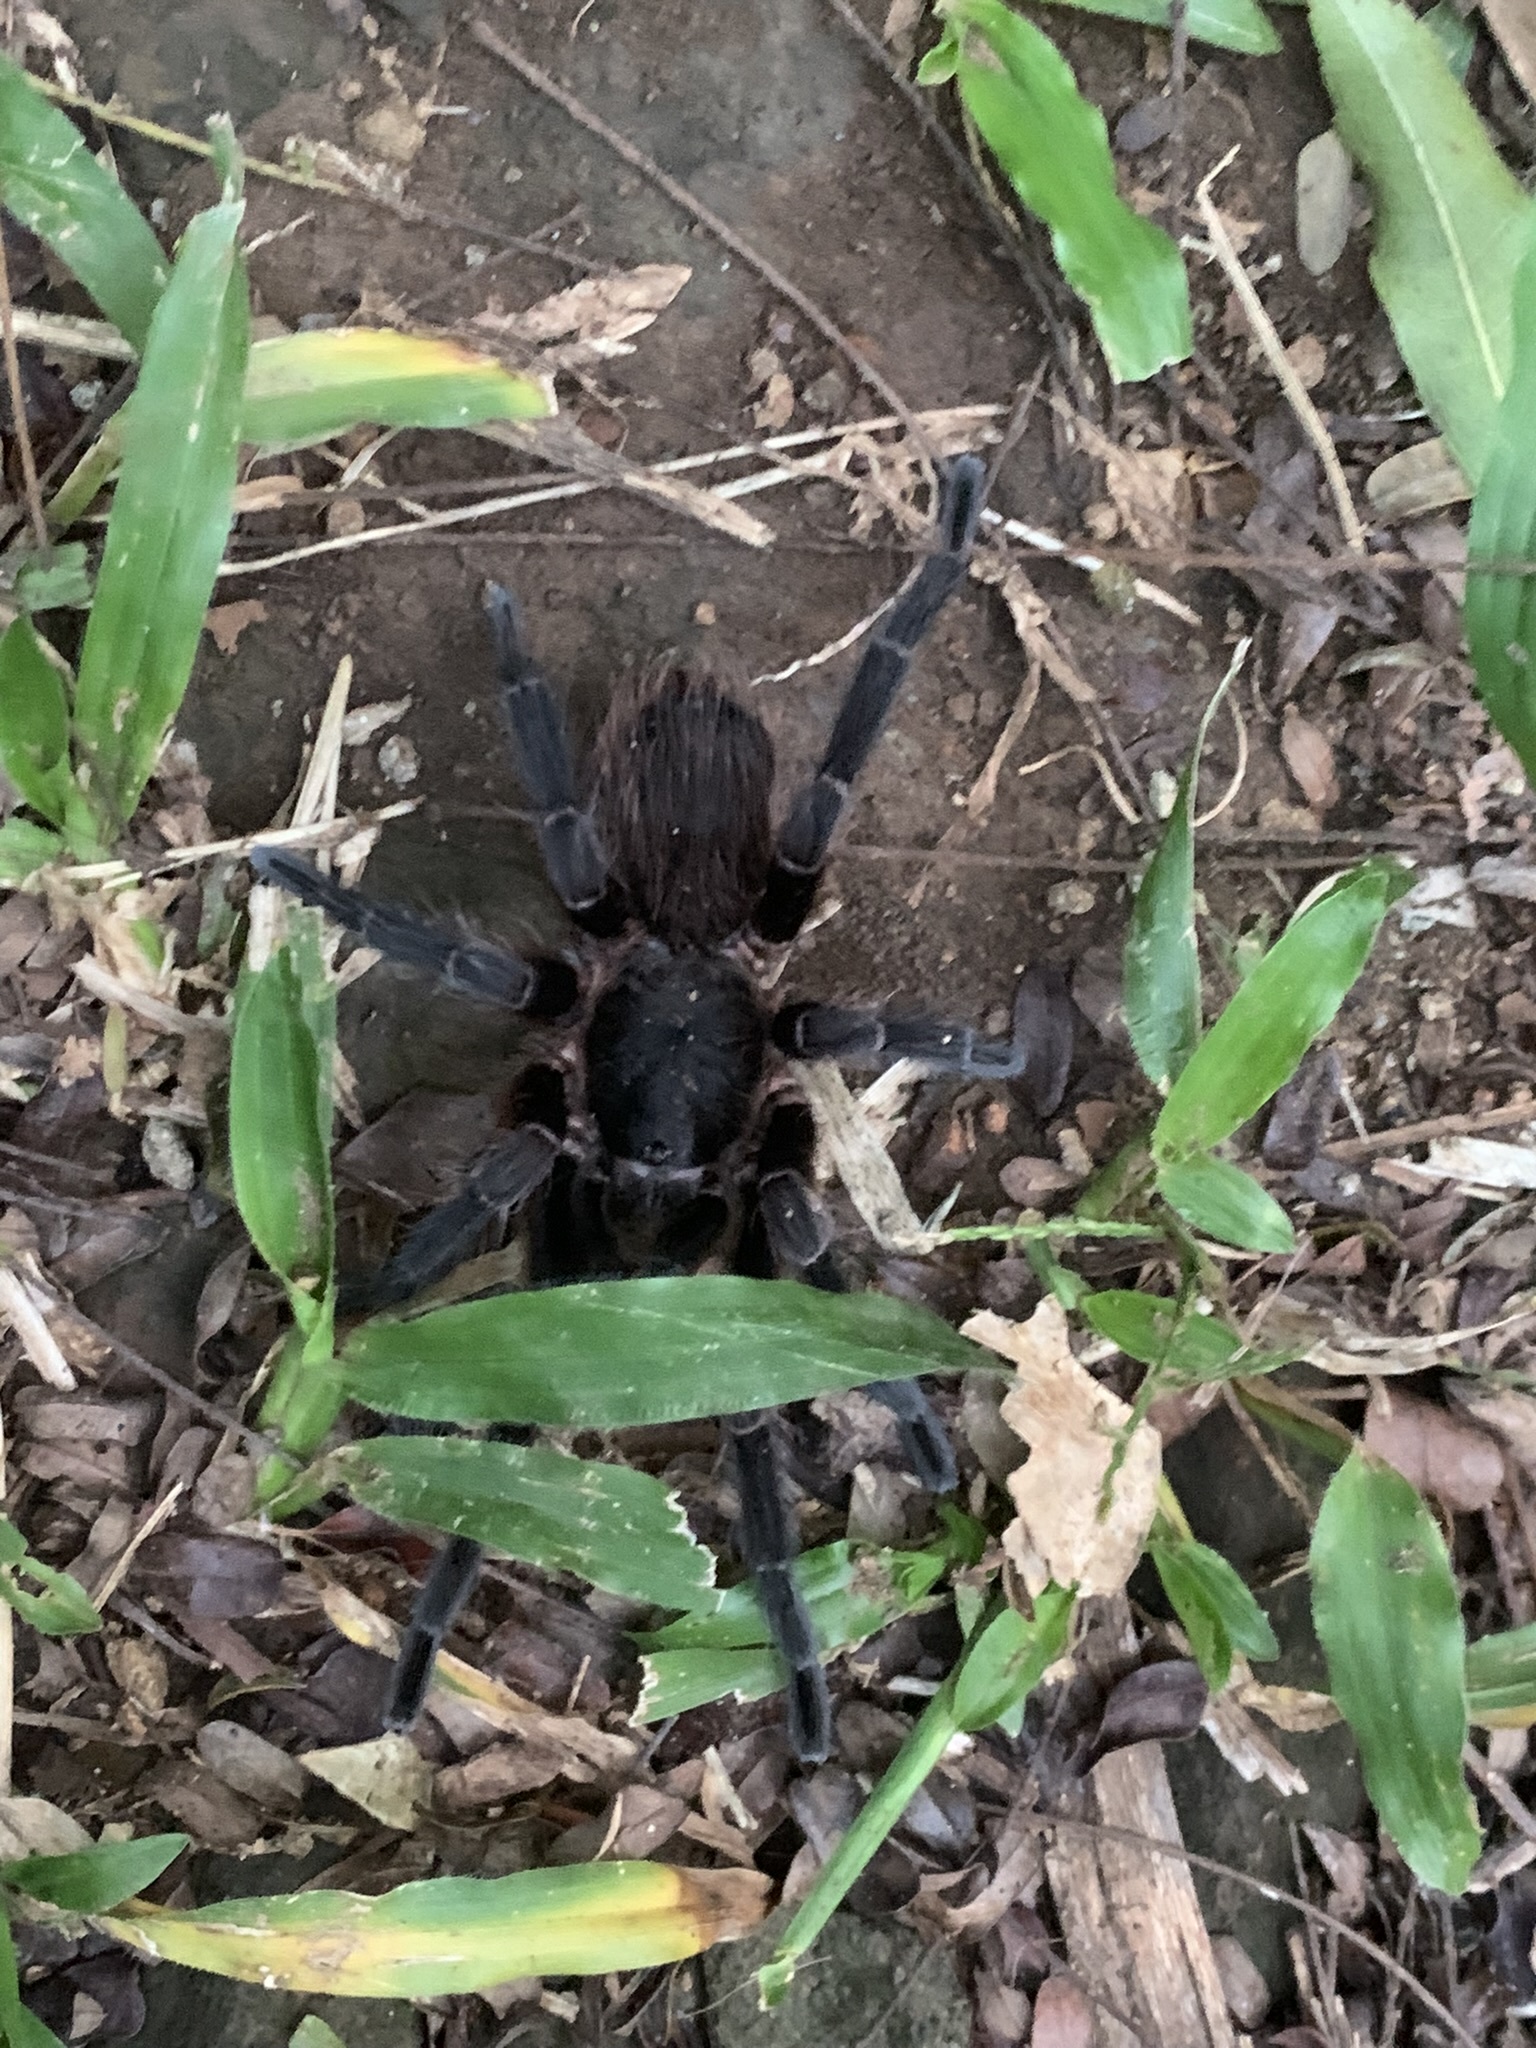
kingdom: Animalia
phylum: Arthropoda
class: Arachnida
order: Araneae
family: Theraphosidae
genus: Pterinopelma
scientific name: Pterinopelma longisternale
